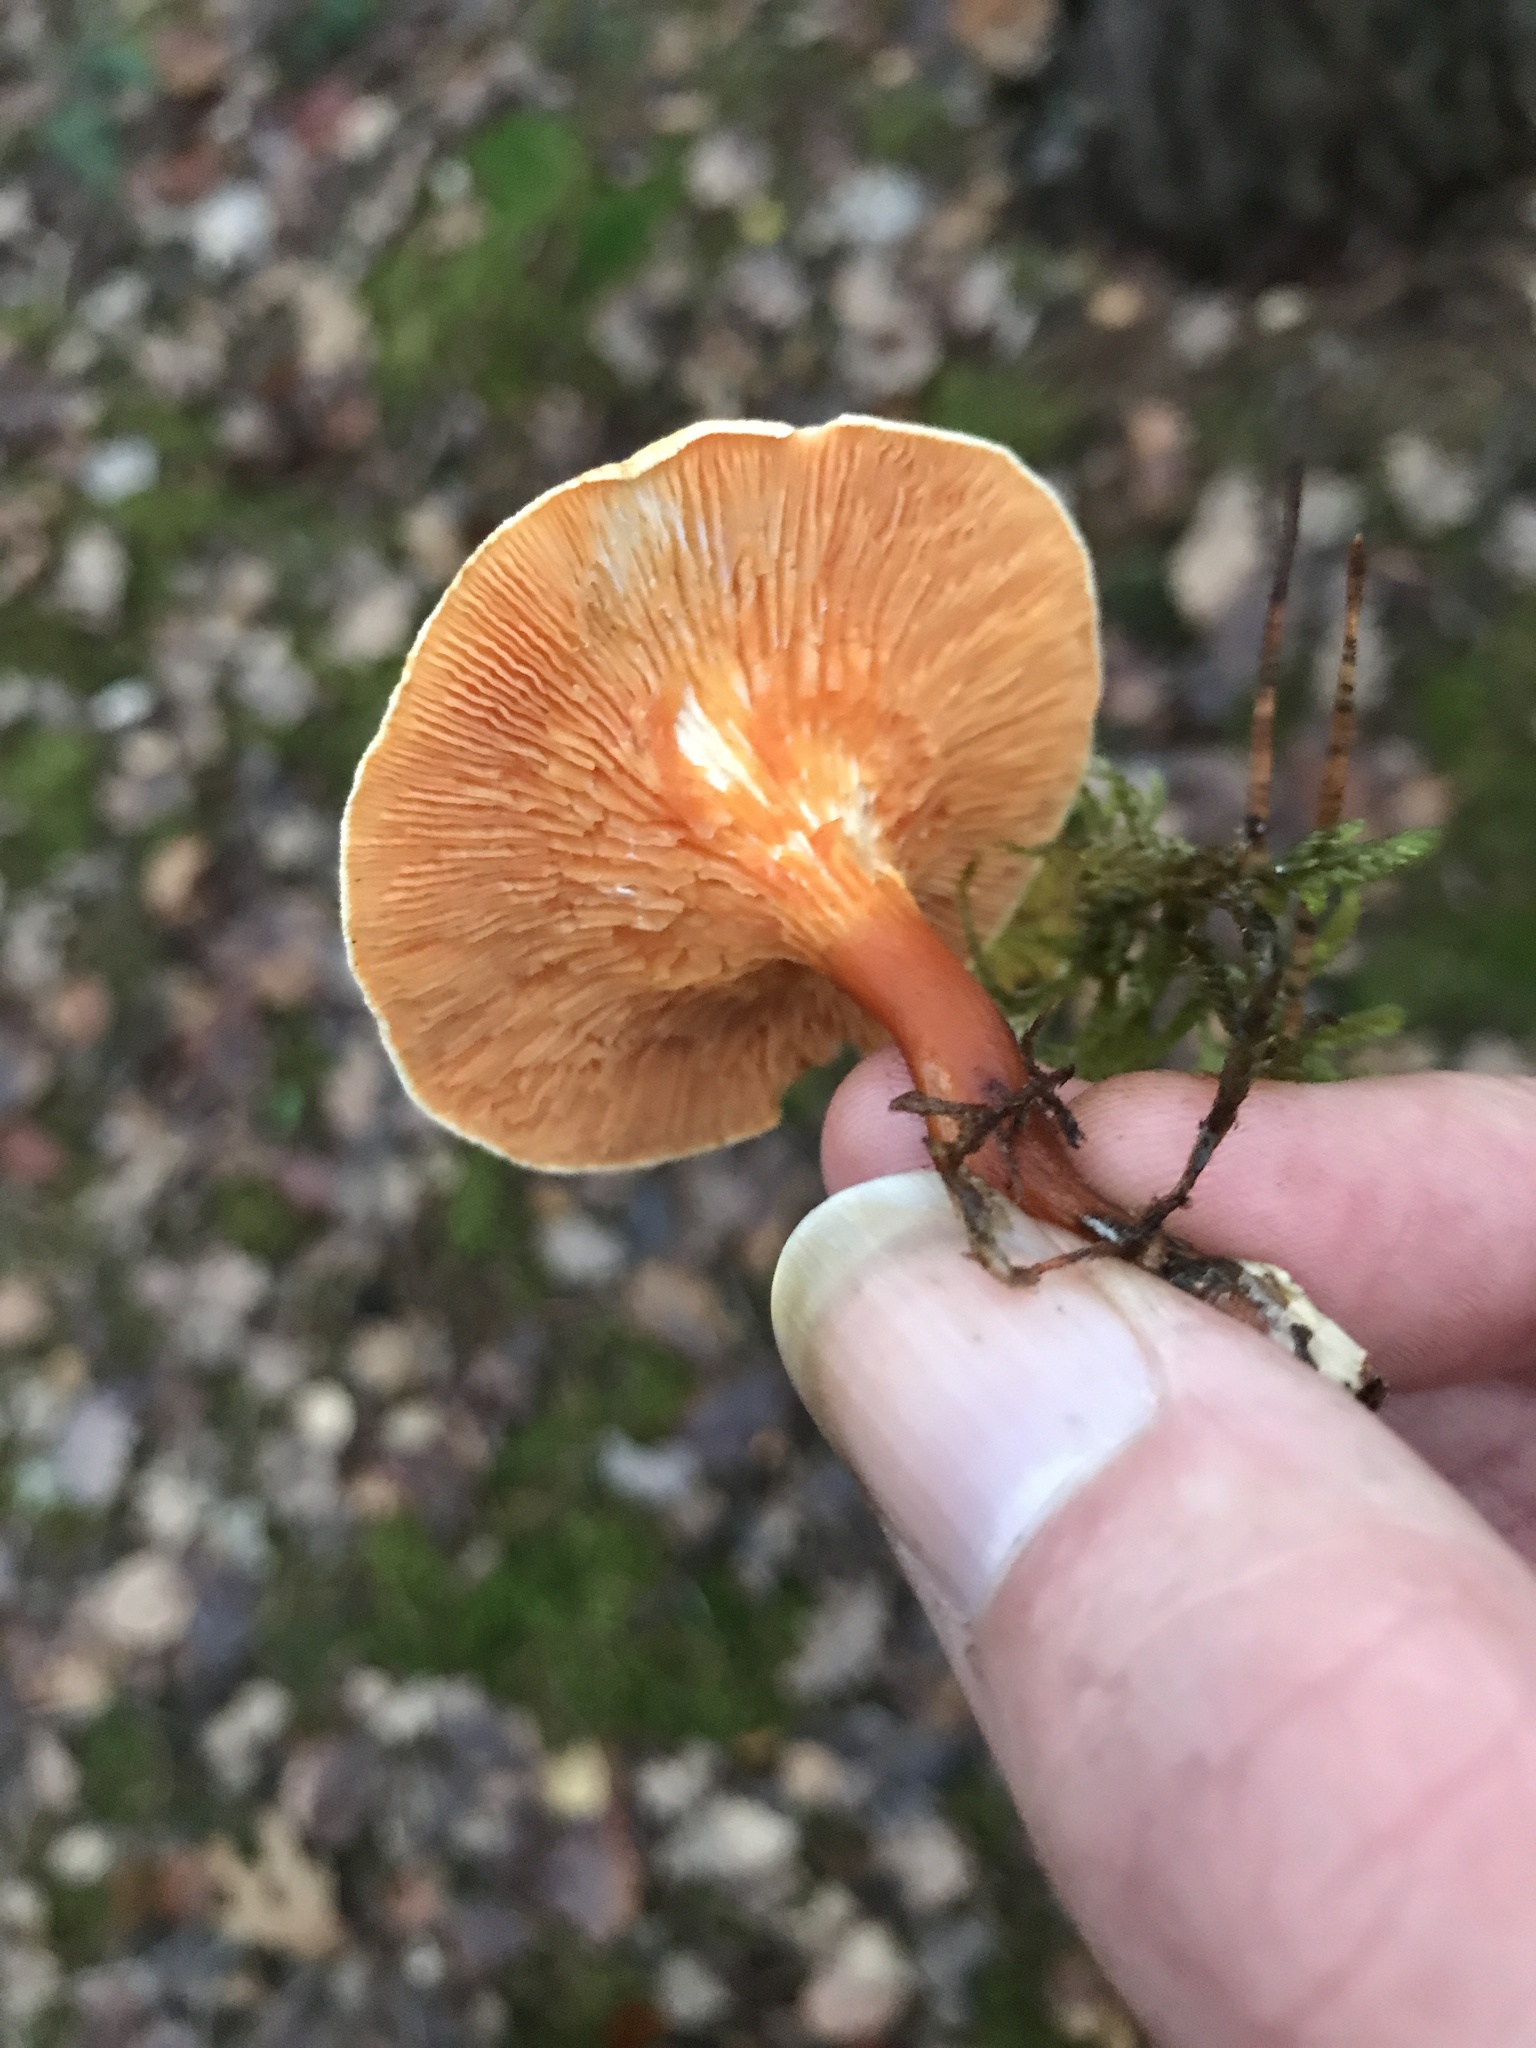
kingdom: Fungi
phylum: Basidiomycota
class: Agaricomycetes
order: Boletales
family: Hygrophoropsidaceae
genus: Hygrophoropsis
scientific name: Hygrophoropsis aurantiaca
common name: False chanterelle
